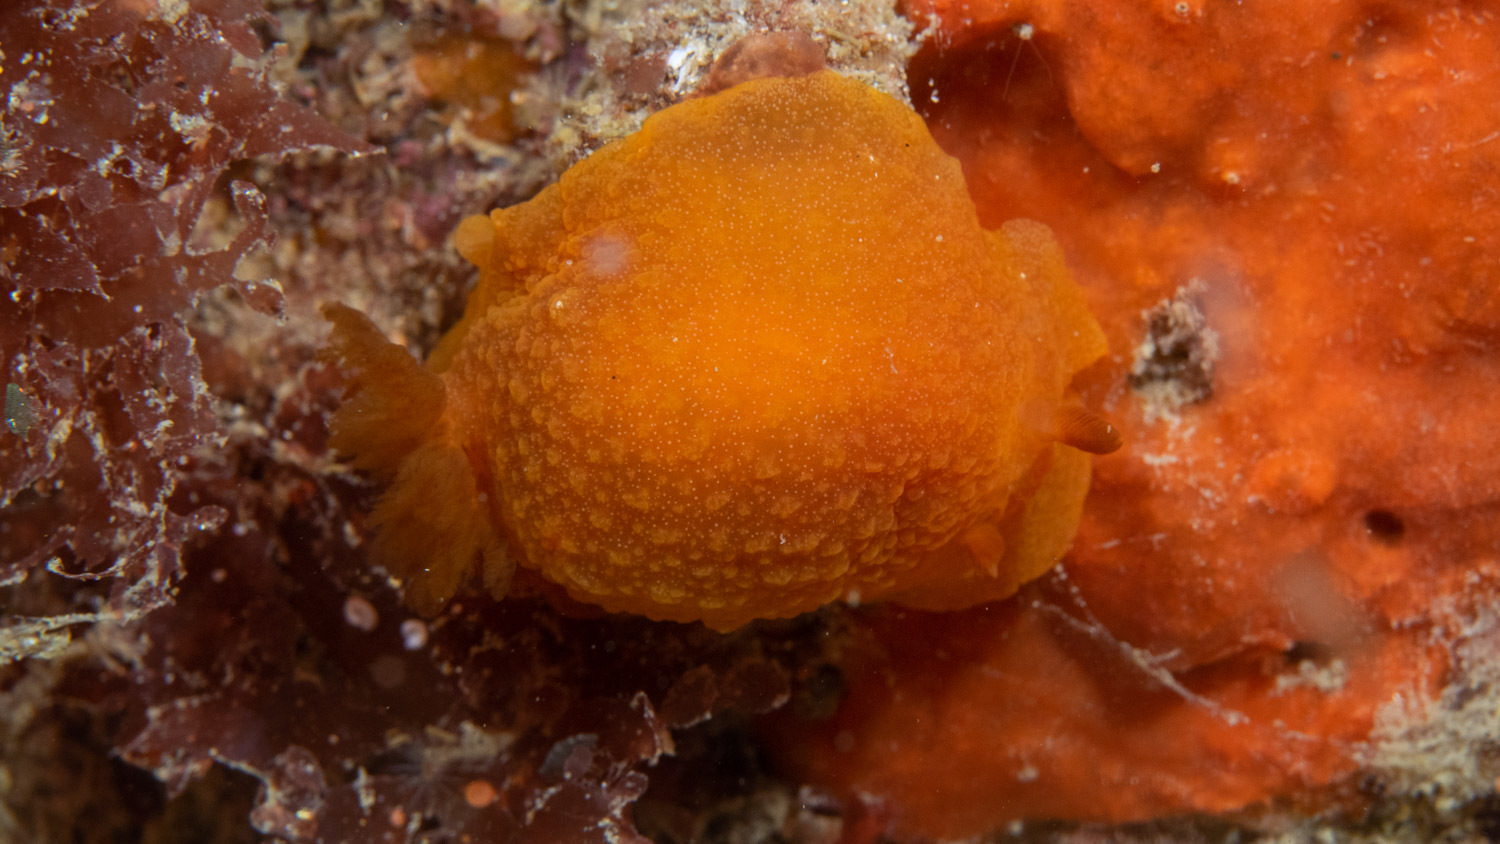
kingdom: Animalia
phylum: Mollusca
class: Gastropoda
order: Nudibranchia
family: Dendrodorididae
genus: Doriopsilla
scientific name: Doriopsilla carneola
